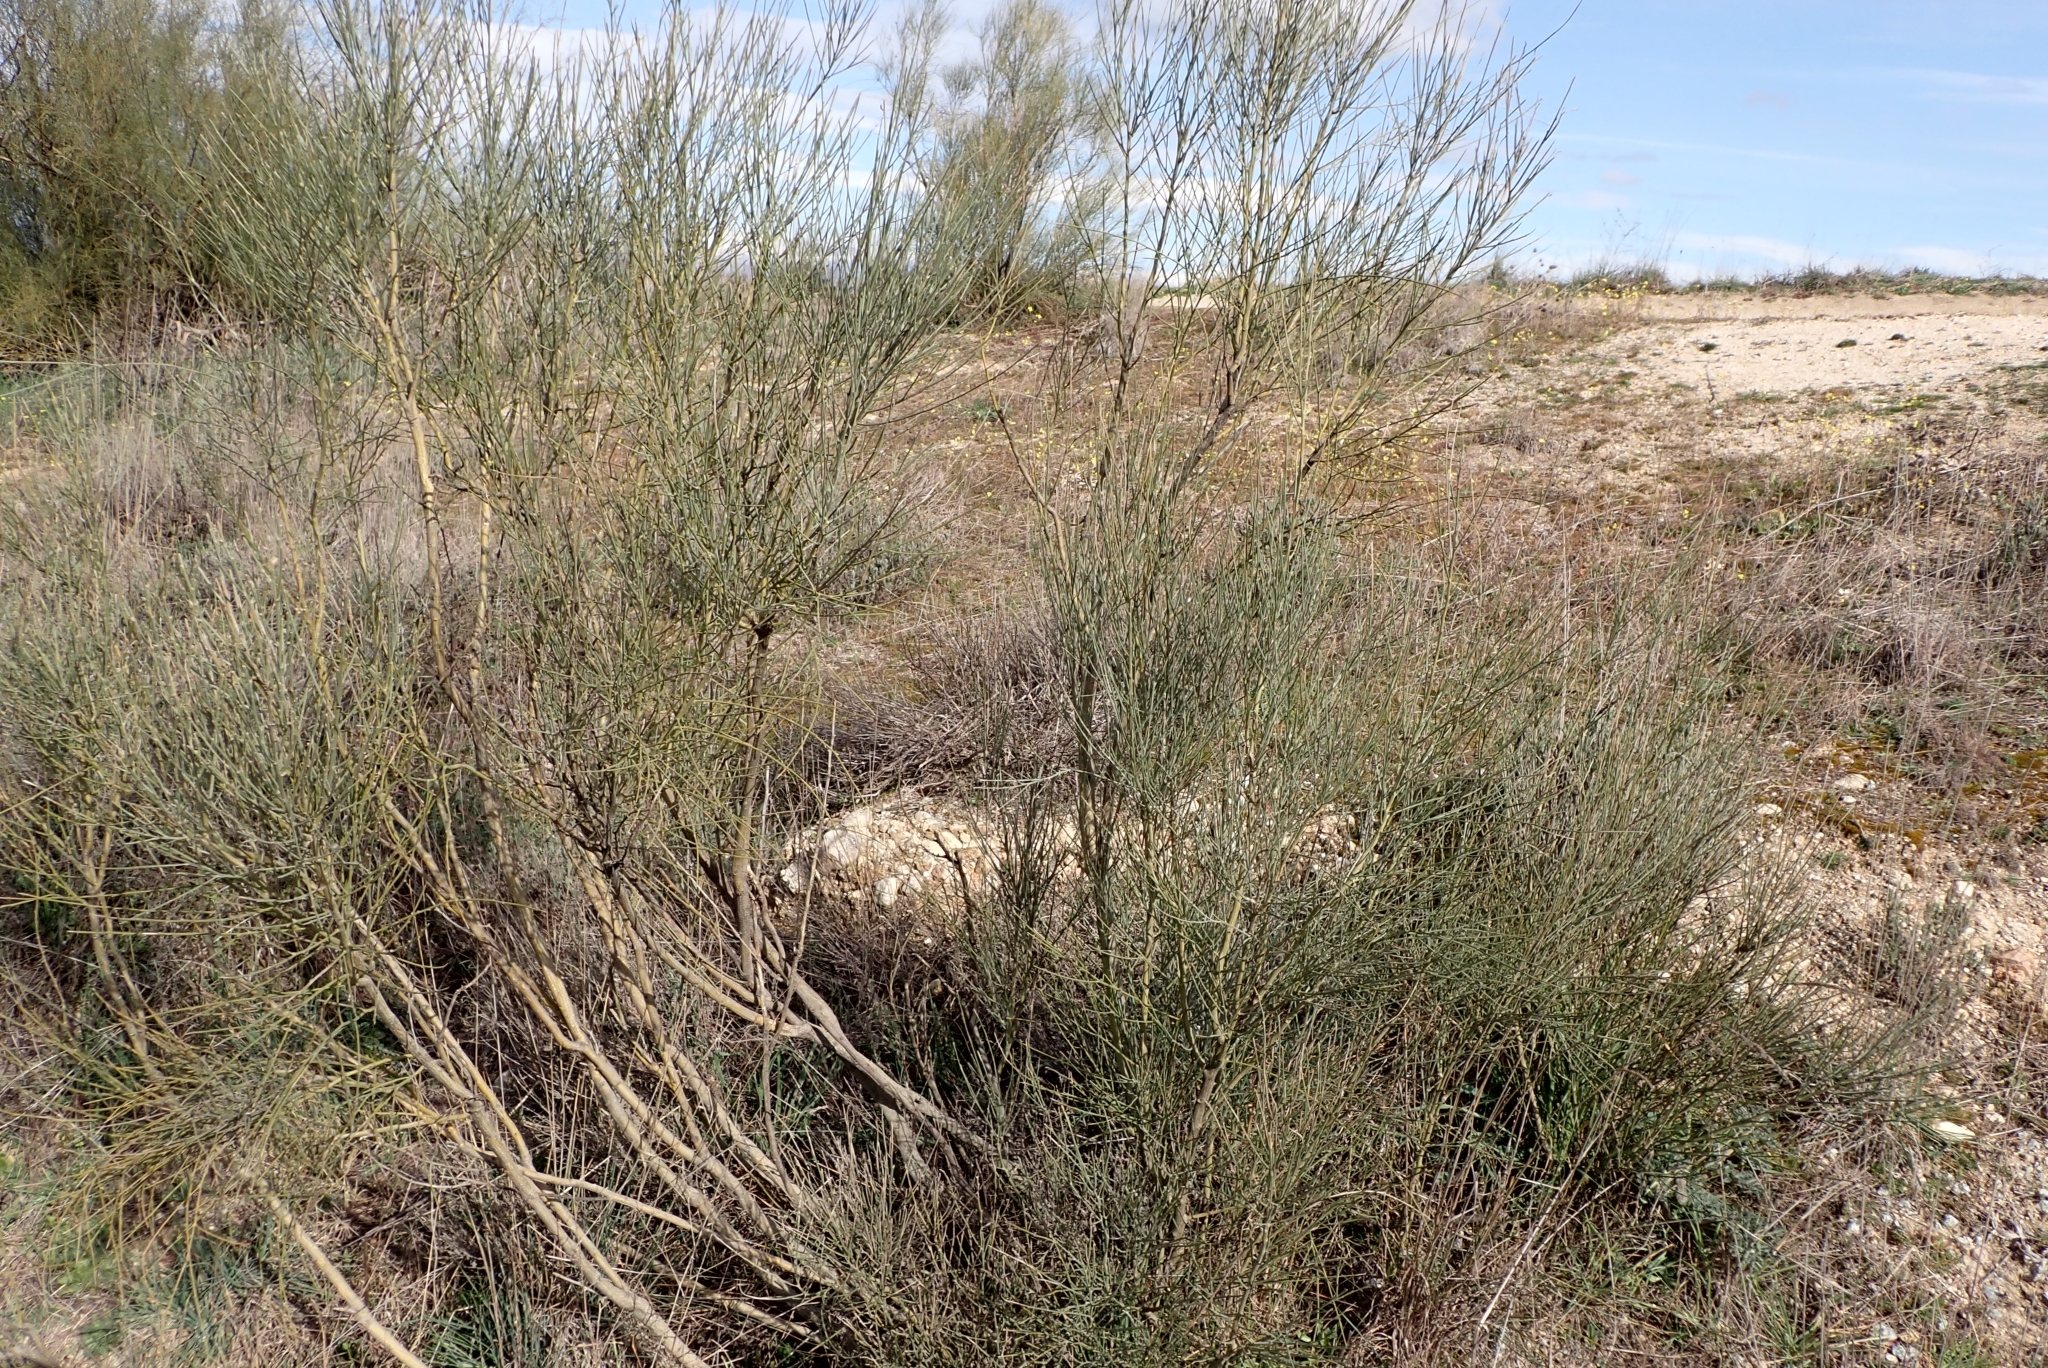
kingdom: Plantae
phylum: Tracheophyta
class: Magnoliopsida
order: Fabales
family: Fabaceae
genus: Retama
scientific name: Retama sphaerocarpa
